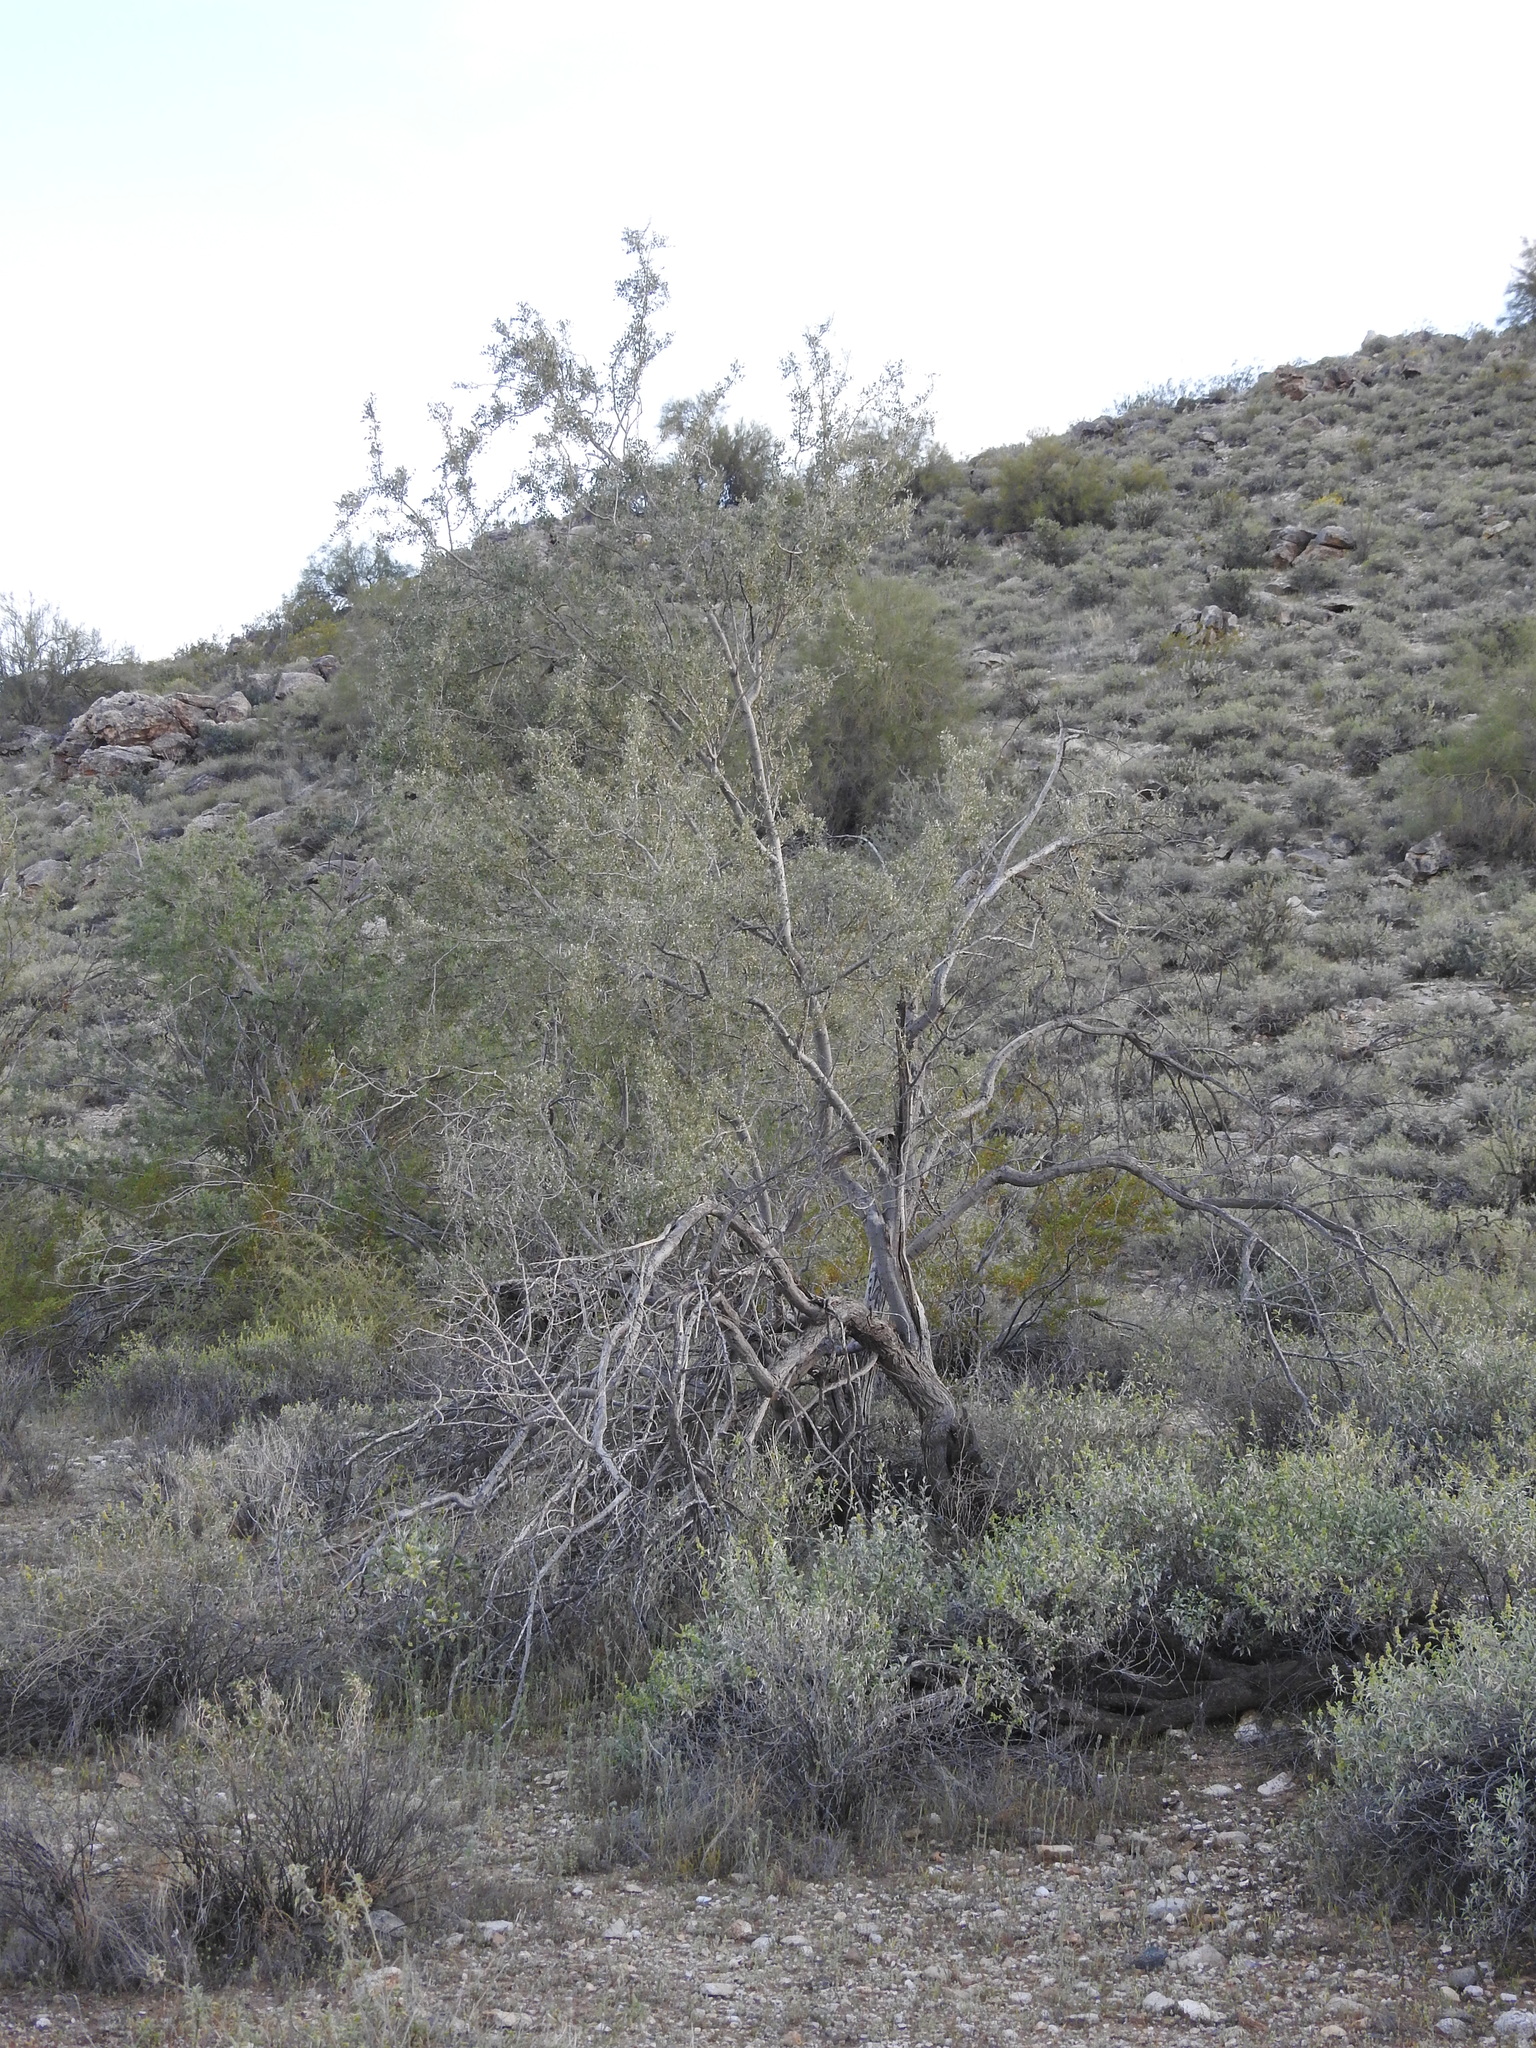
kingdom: Plantae
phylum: Tracheophyta
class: Magnoliopsida
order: Fabales
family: Fabaceae
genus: Olneya
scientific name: Olneya tesota
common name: Desert ironwood
